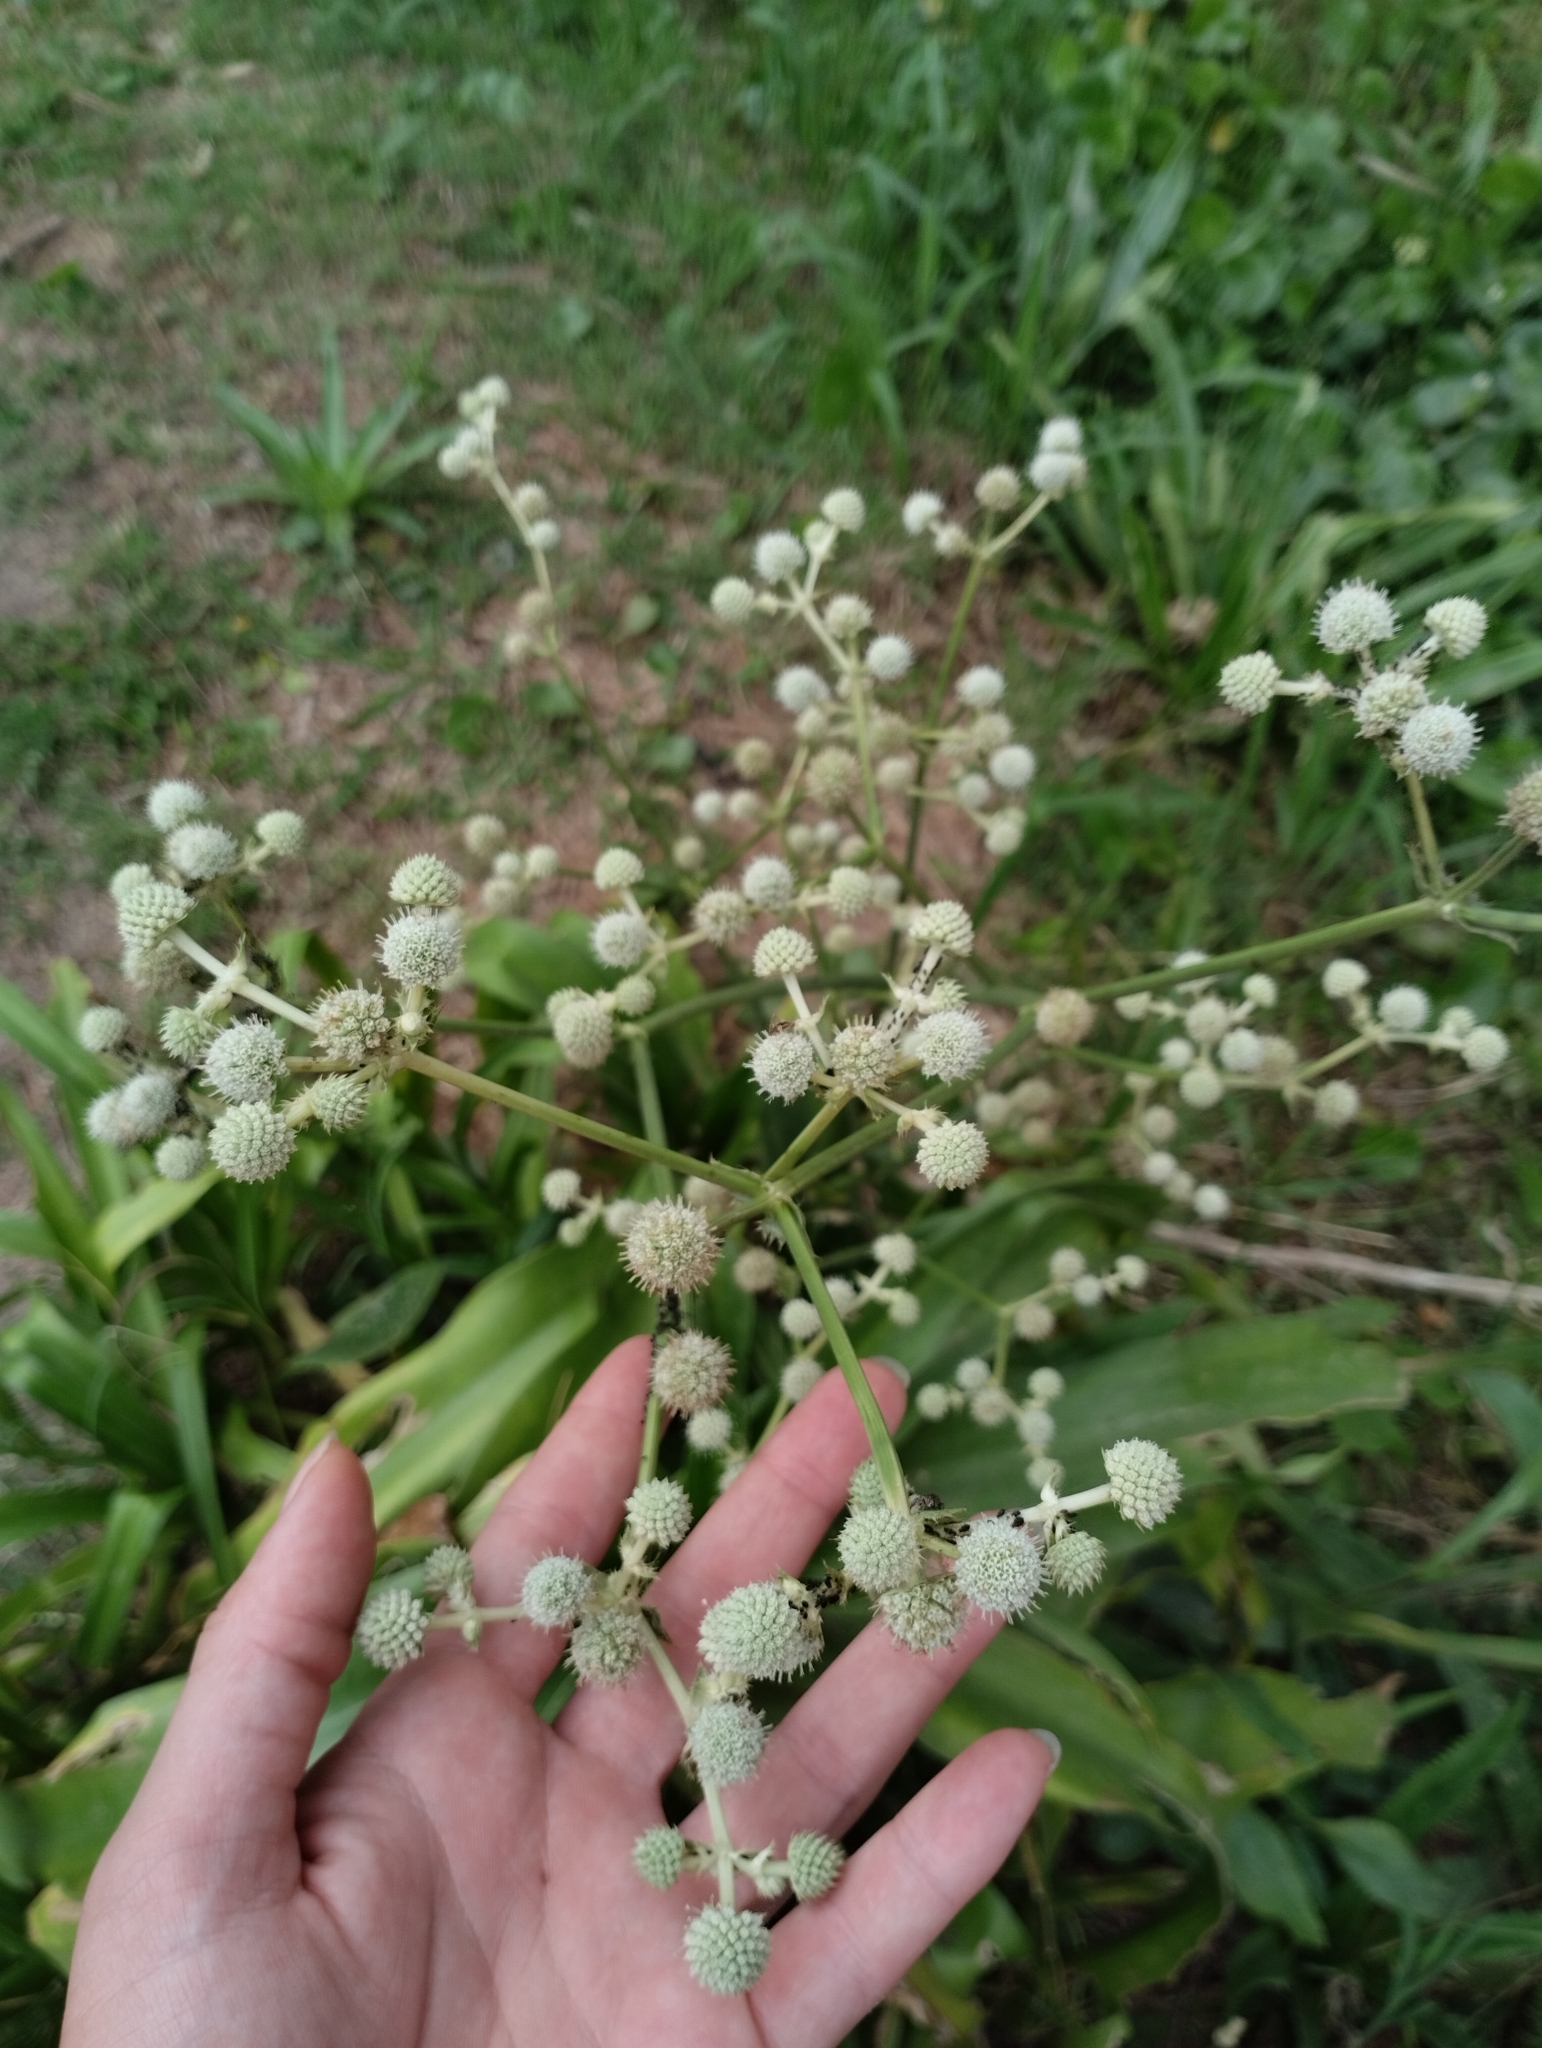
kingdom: Plantae
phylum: Tracheophyta
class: Magnoliopsida
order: Apiales
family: Apiaceae
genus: Eryngium
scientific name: Eryngium elegans
